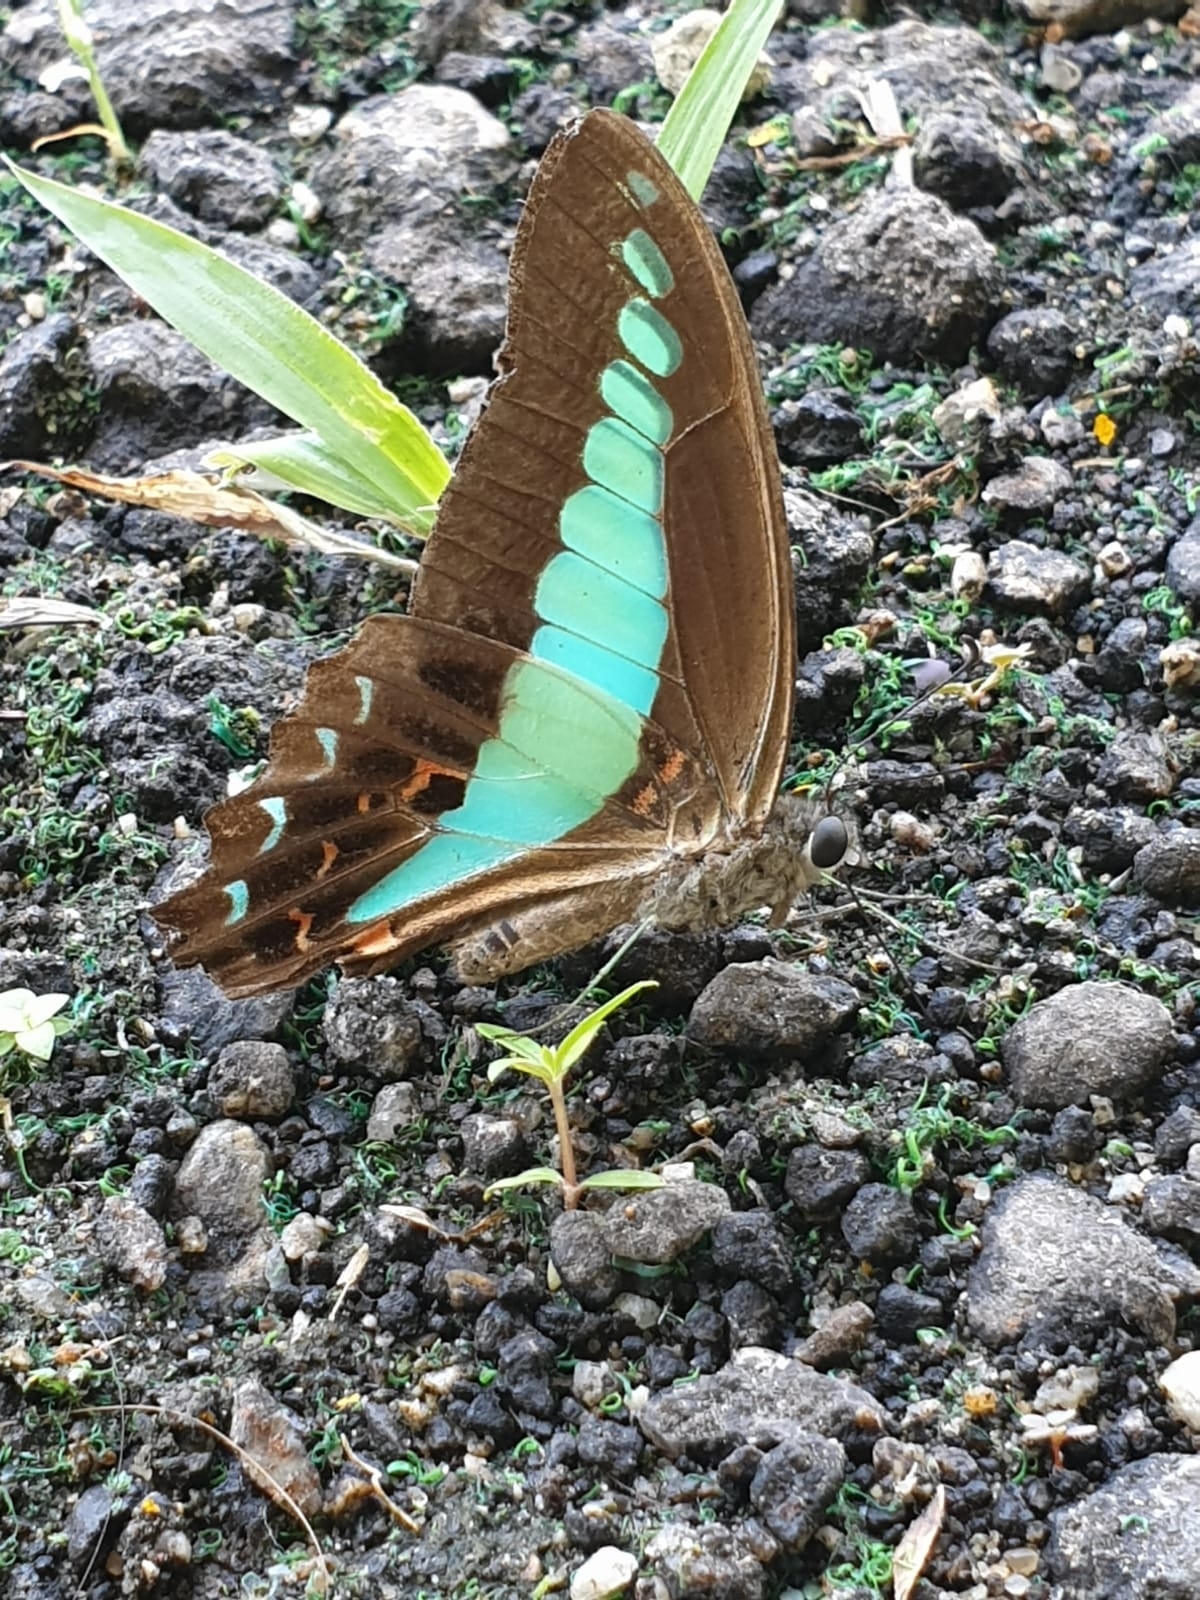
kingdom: Fungi
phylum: Ascomycota
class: Sordariomycetes
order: Microascales
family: Microascaceae
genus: Graphium
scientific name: Graphium sarpedon
